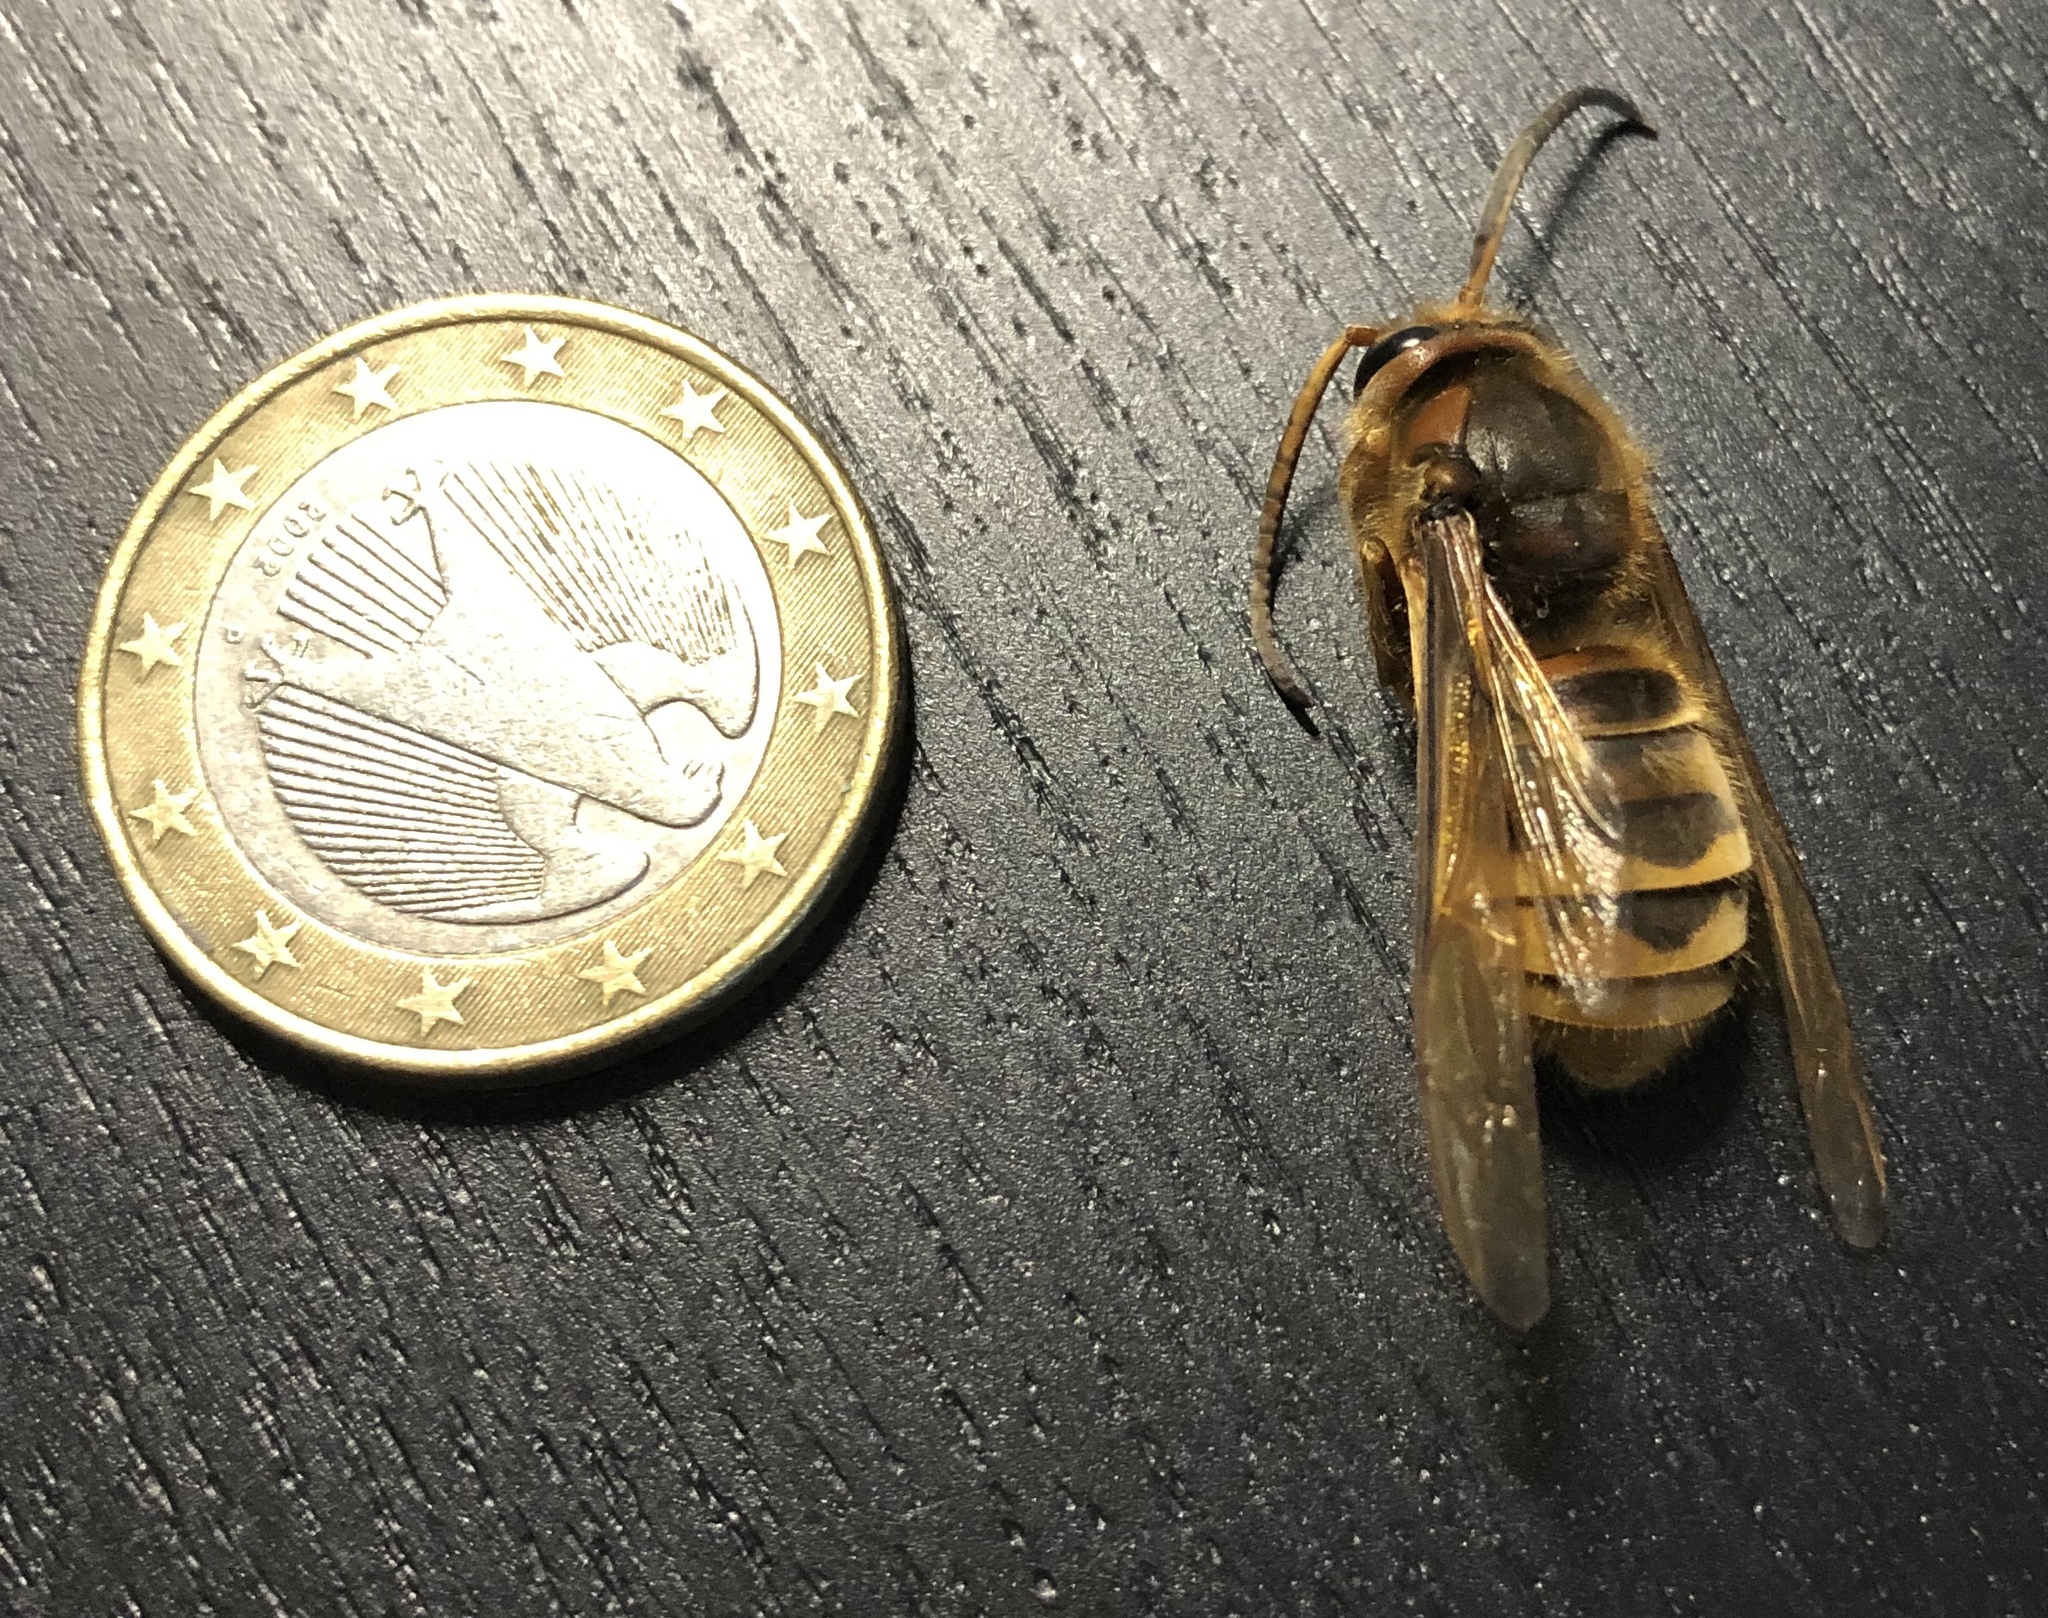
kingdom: Animalia
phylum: Arthropoda
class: Insecta
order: Hymenoptera
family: Vespidae
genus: Vespa
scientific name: Vespa crabro
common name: Hornet
